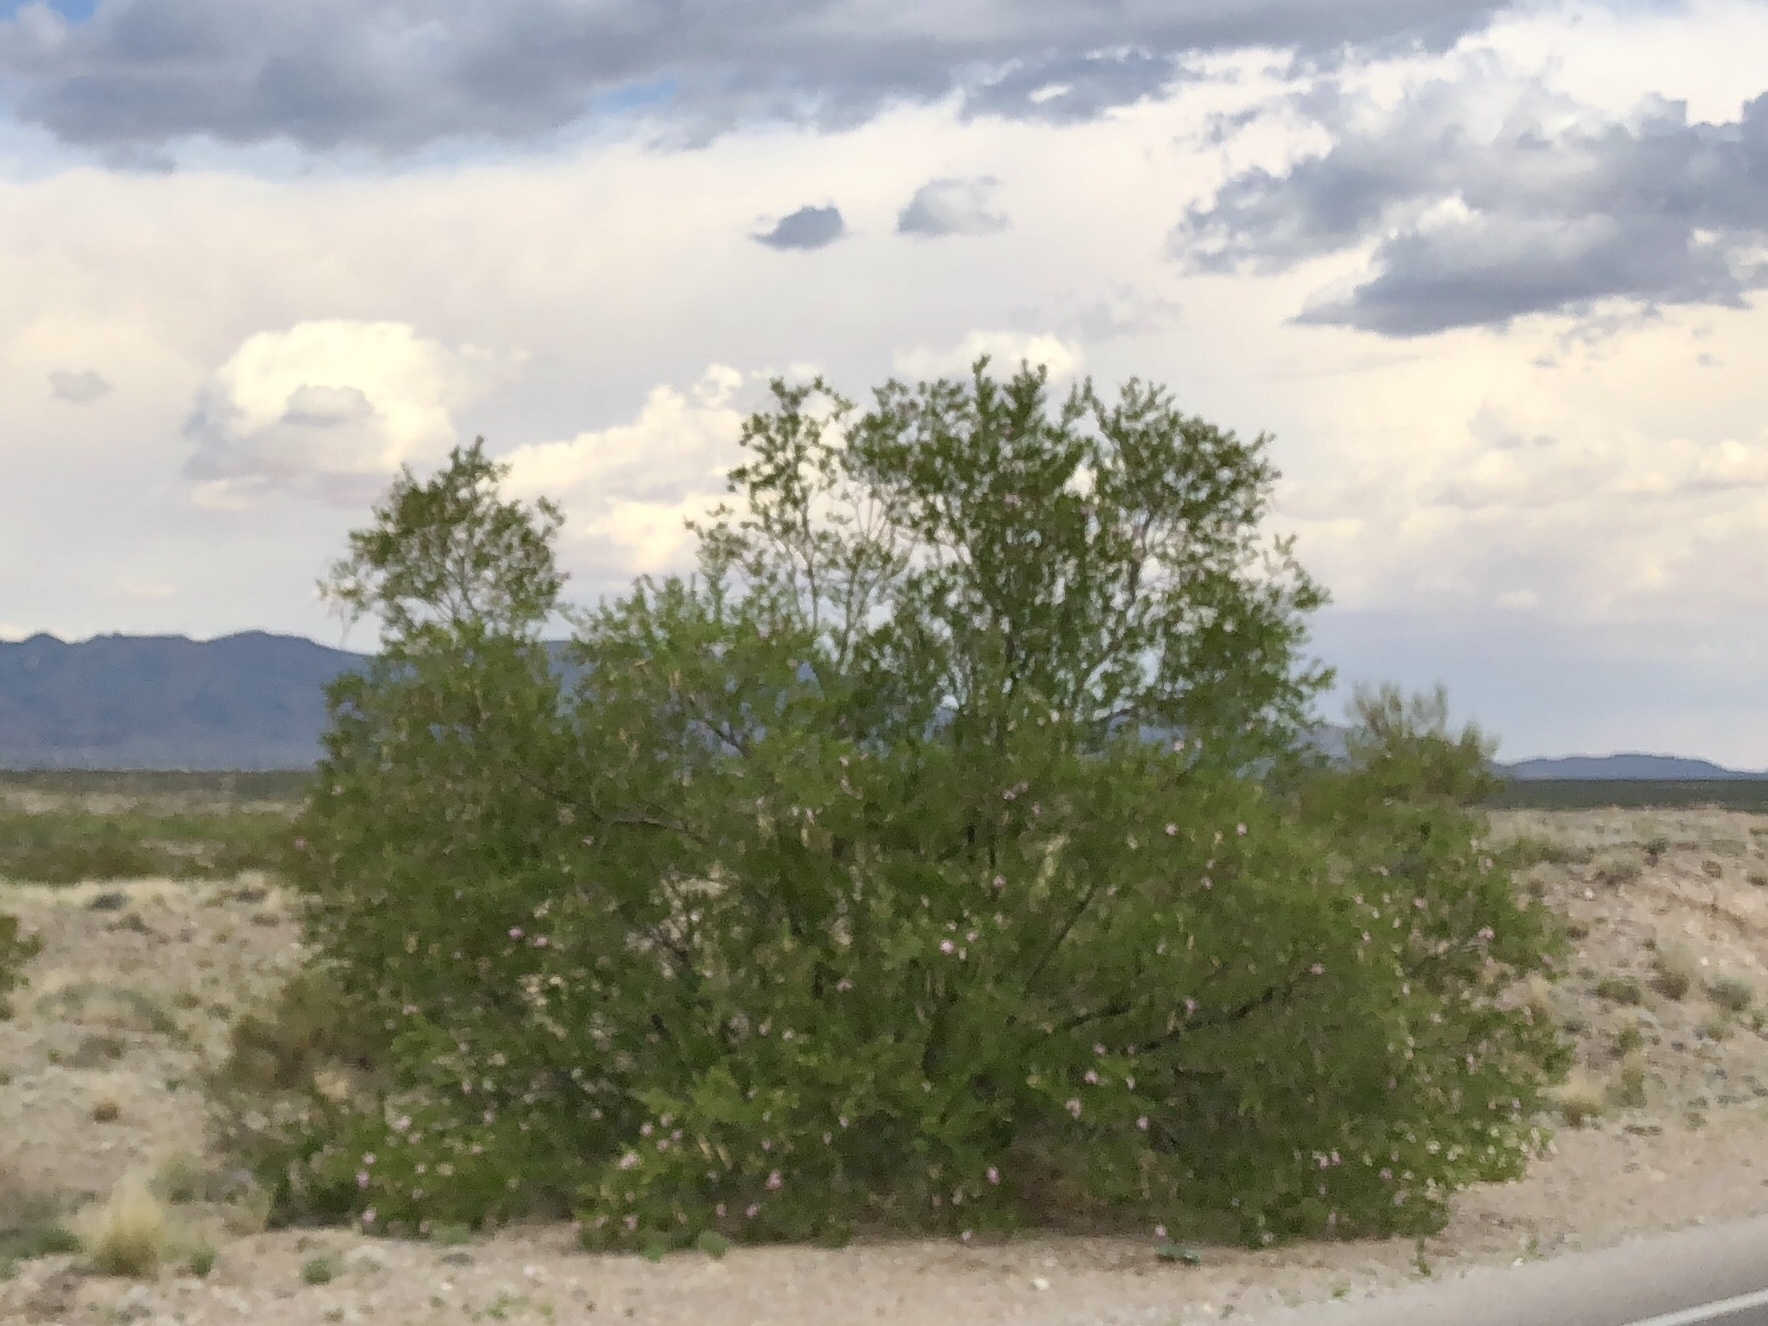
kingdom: Plantae
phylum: Tracheophyta
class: Magnoliopsida
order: Lamiales
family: Bignoniaceae
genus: Chilopsis
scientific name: Chilopsis linearis
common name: Desert-willow
